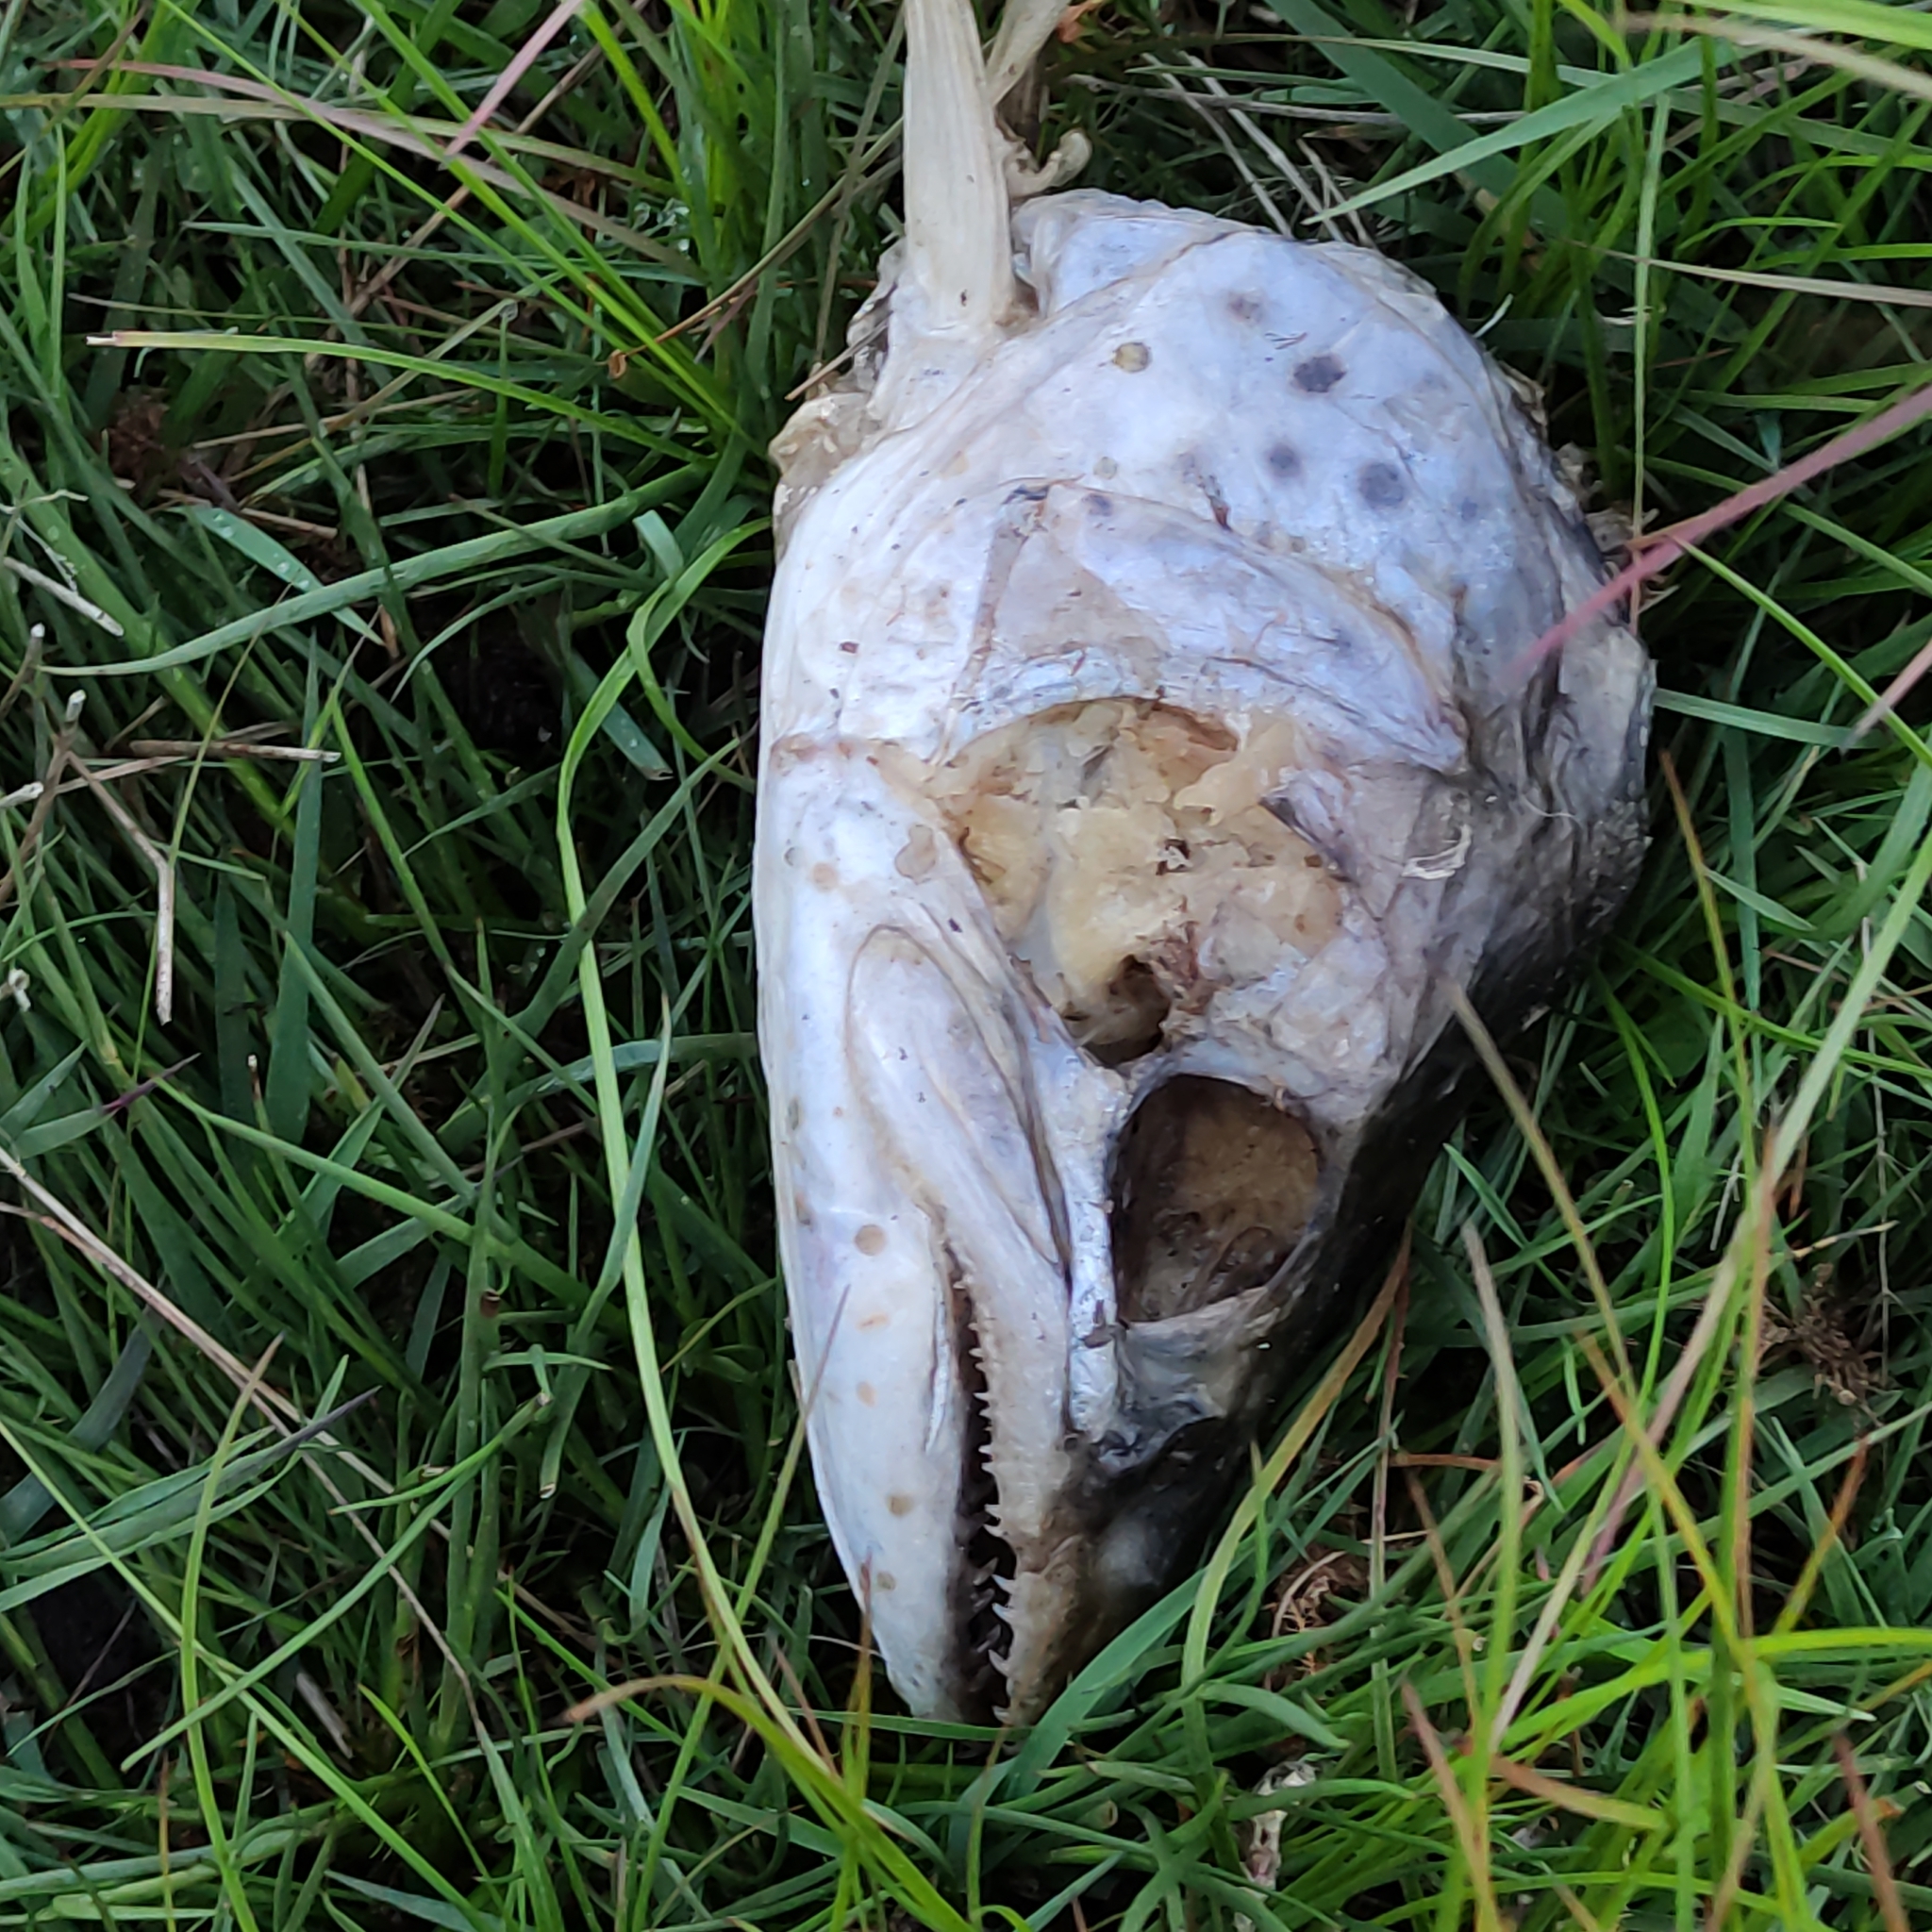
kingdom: Animalia
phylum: Chordata
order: Salmoniformes
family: Salmonidae
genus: Salmo
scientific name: Salmo trutta
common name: Brown trout
